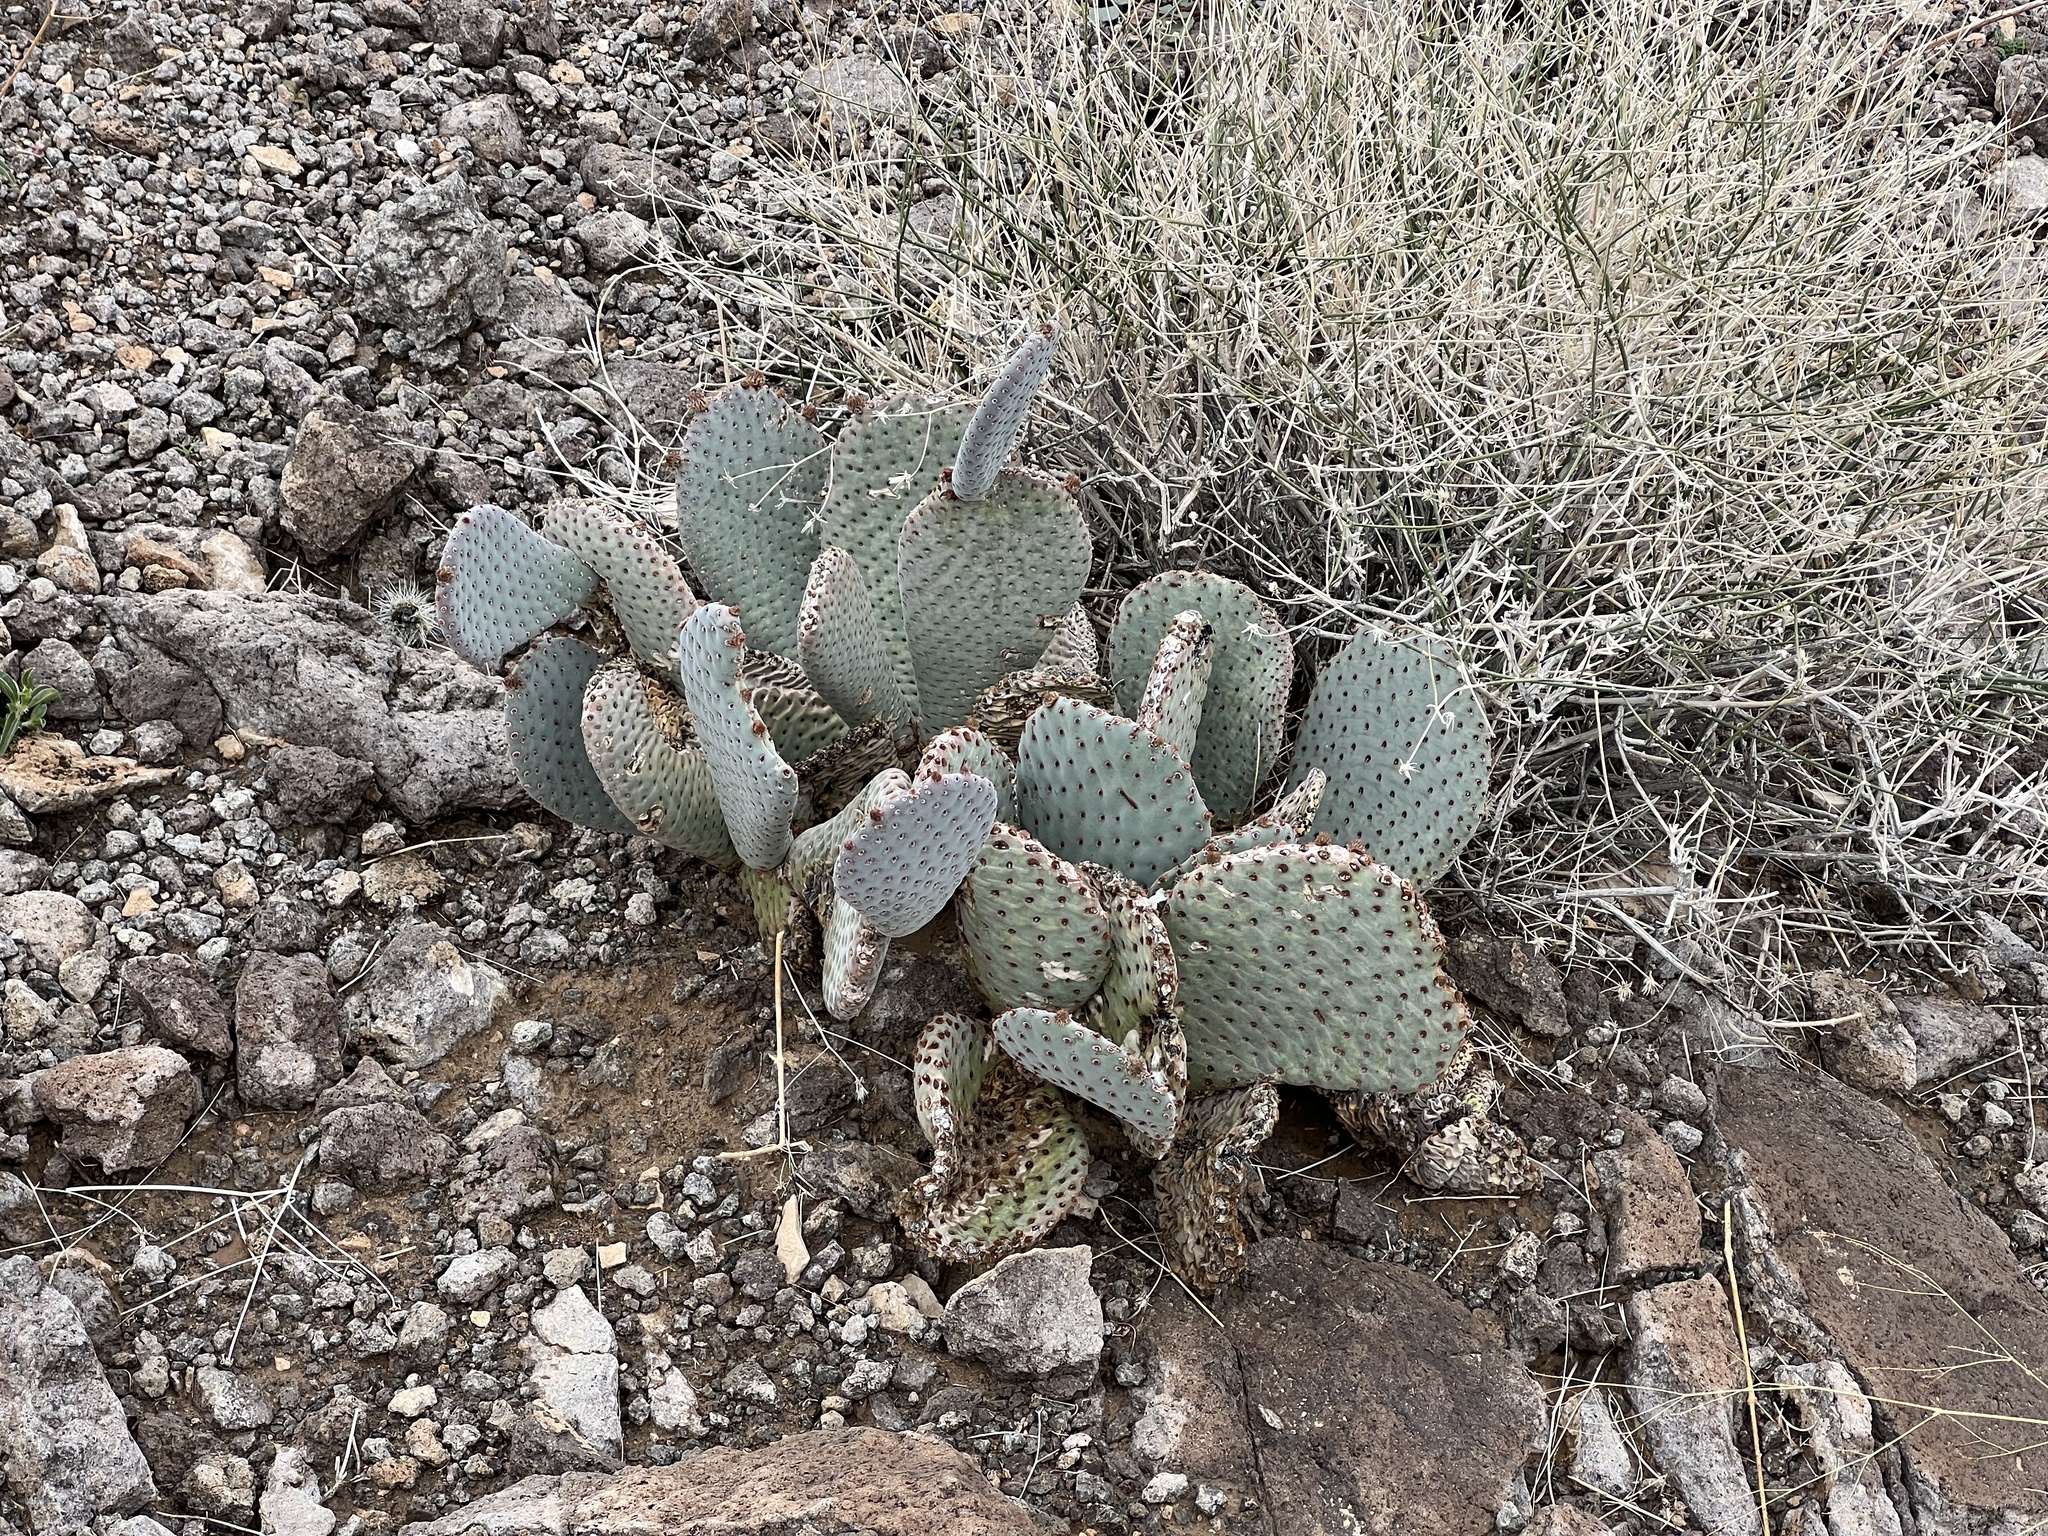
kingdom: Plantae
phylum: Tracheophyta
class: Magnoliopsida
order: Caryophyllales
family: Cactaceae
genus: Opuntia
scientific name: Opuntia basilaris
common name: Beavertail prickly-pear
